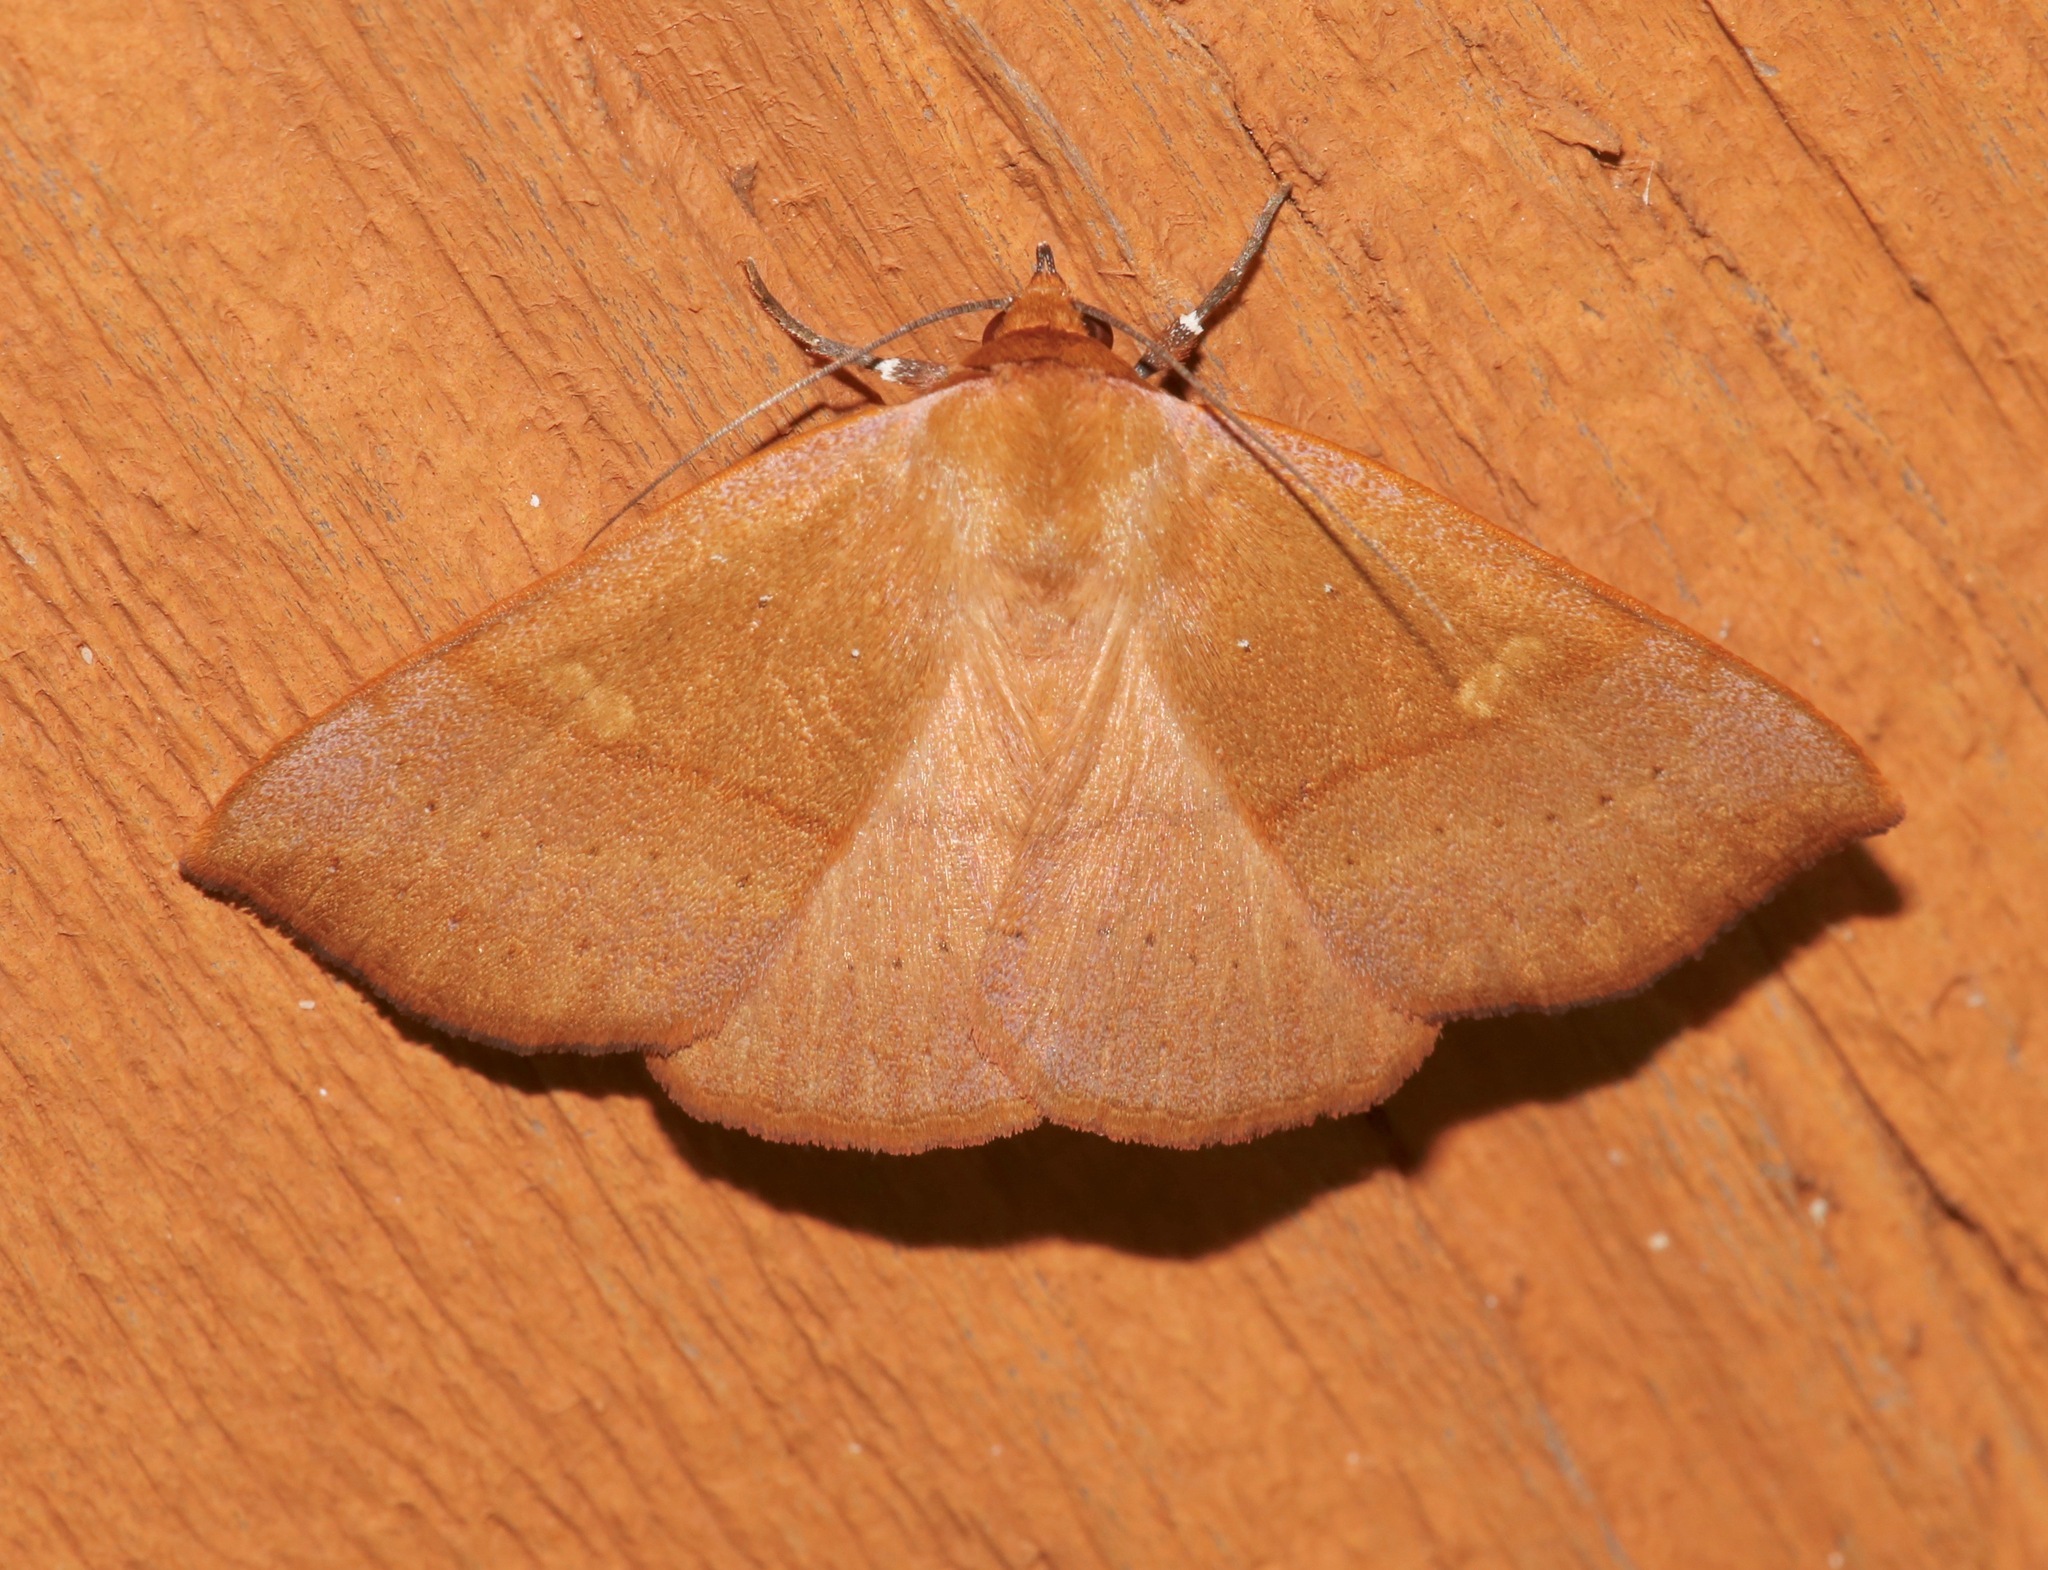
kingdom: Animalia
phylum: Arthropoda
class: Insecta
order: Lepidoptera
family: Erebidae
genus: Panopoda
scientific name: Panopoda repanda
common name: Orange panopoda
